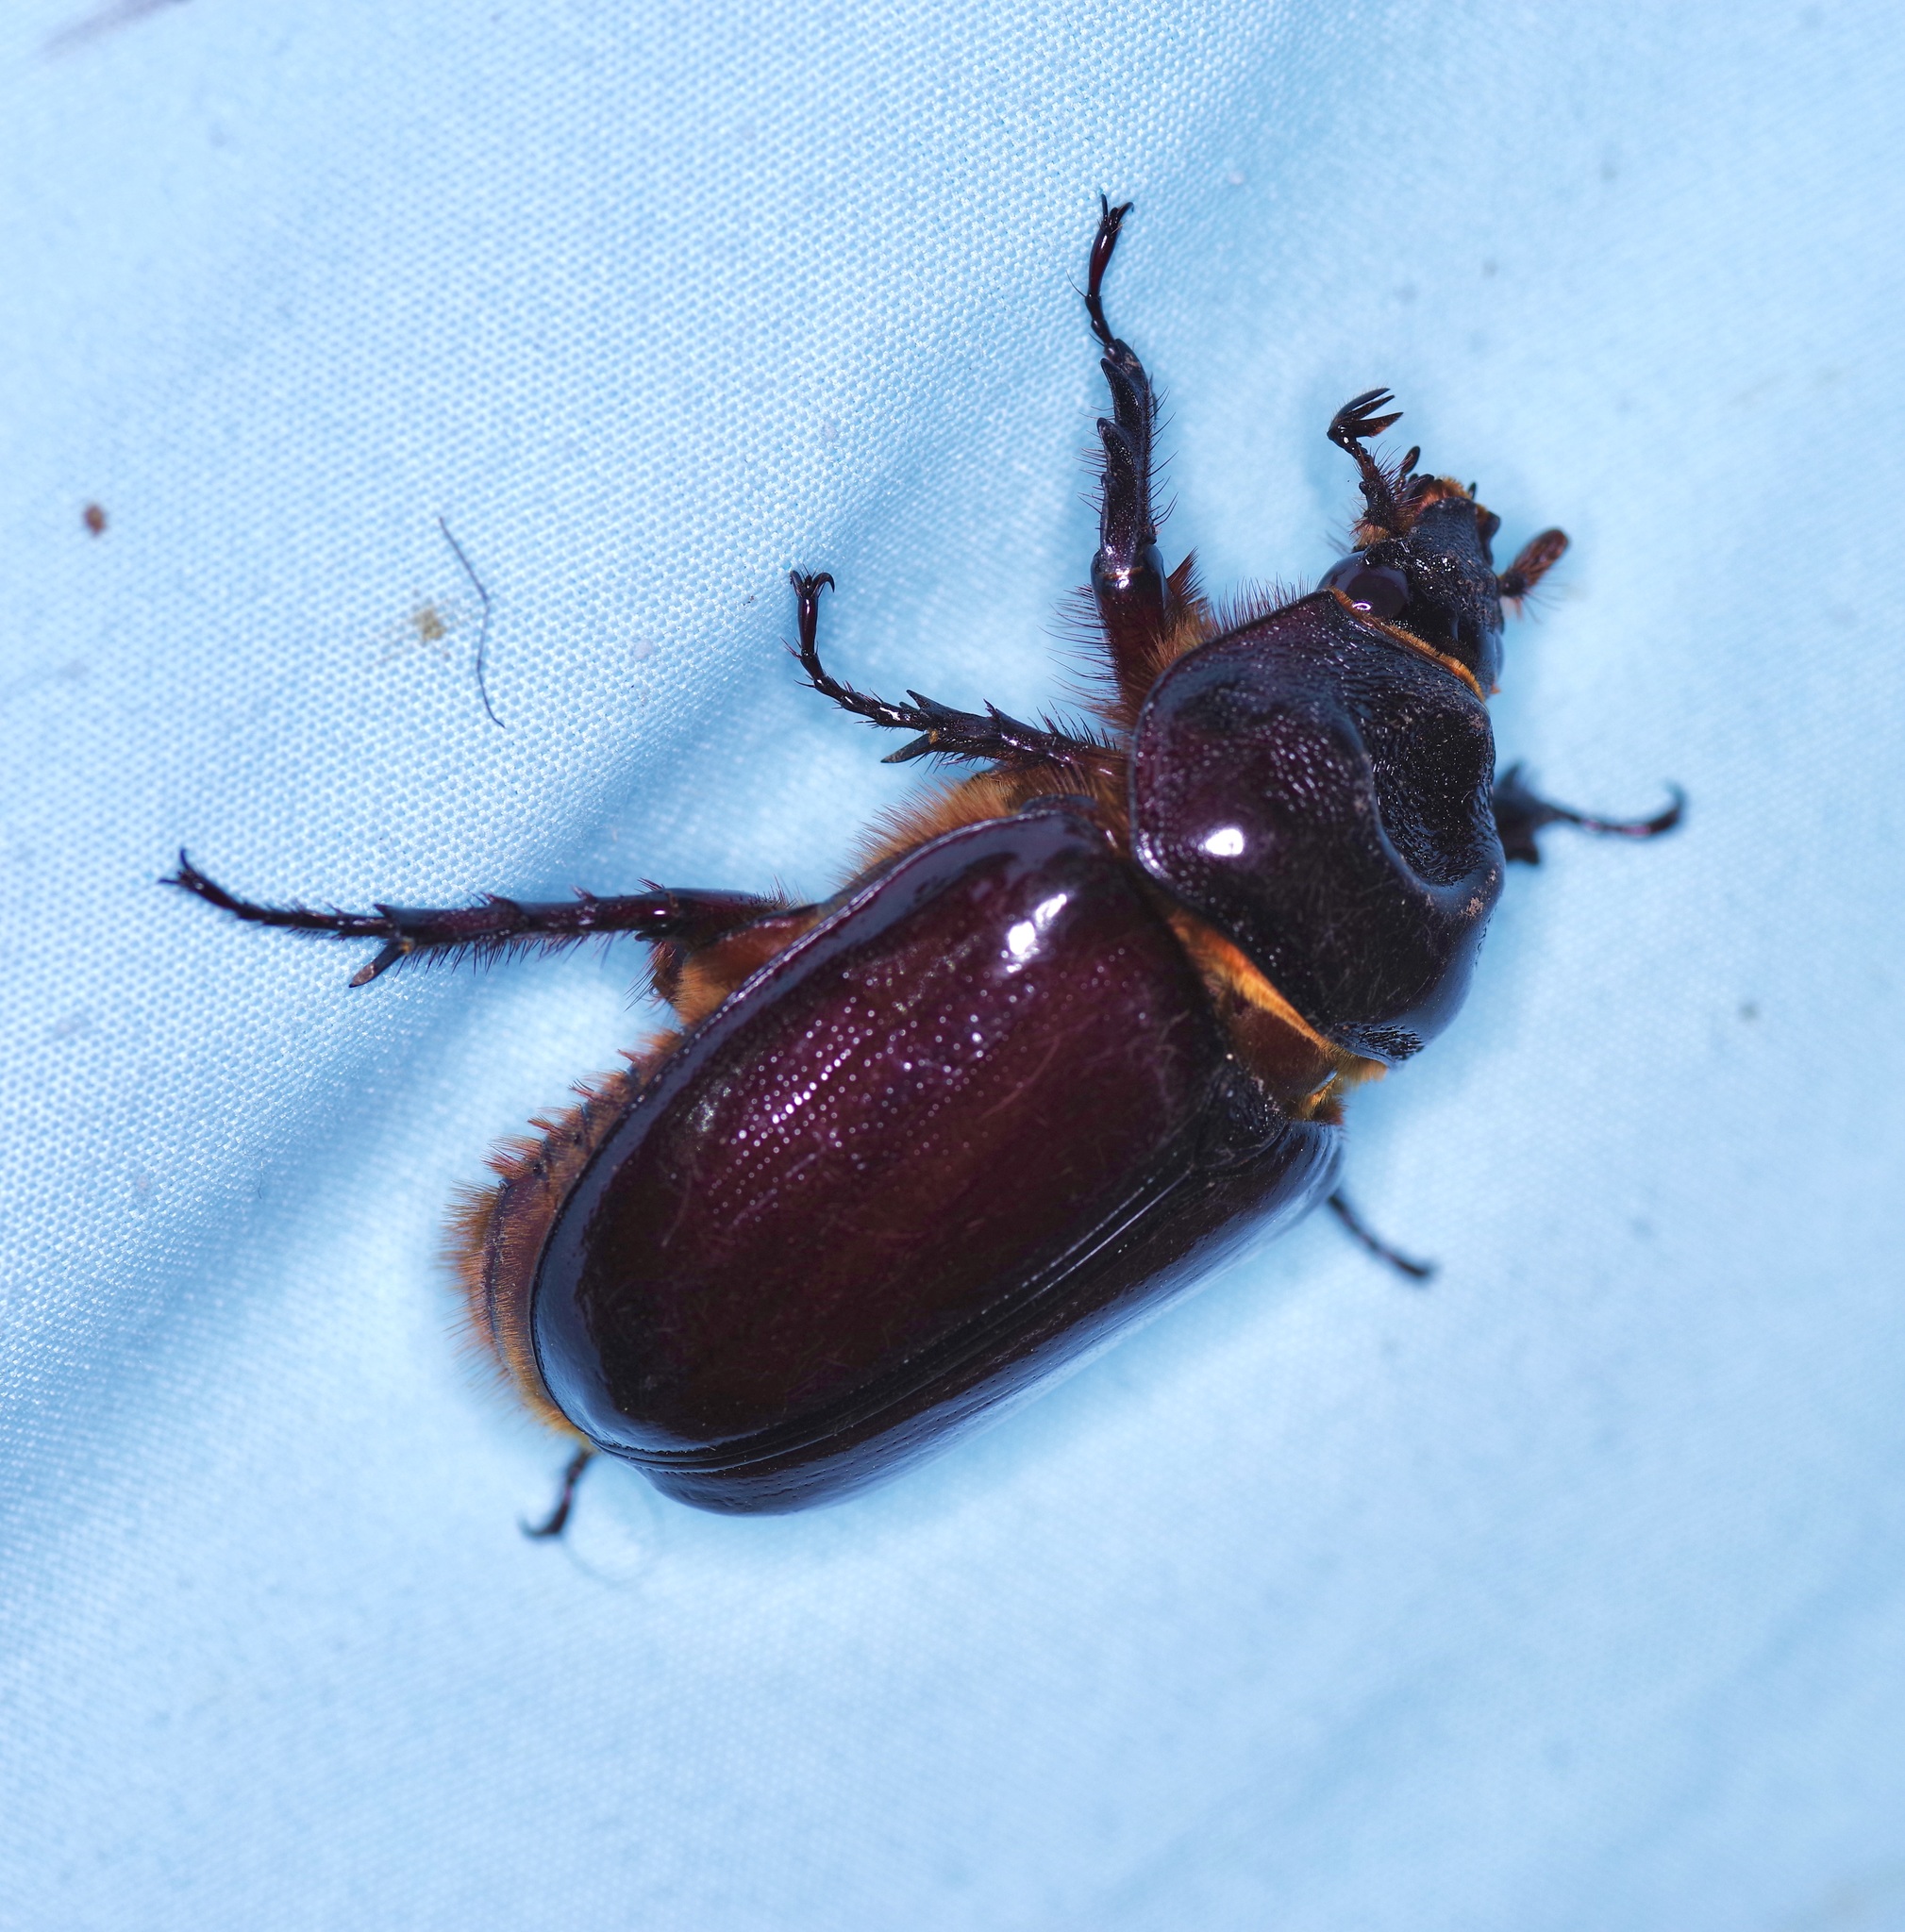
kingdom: Animalia
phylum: Arthropoda
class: Insecta
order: Coleoptera
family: Scarabaeidae
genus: Strategus
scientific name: Strategus aloeus
